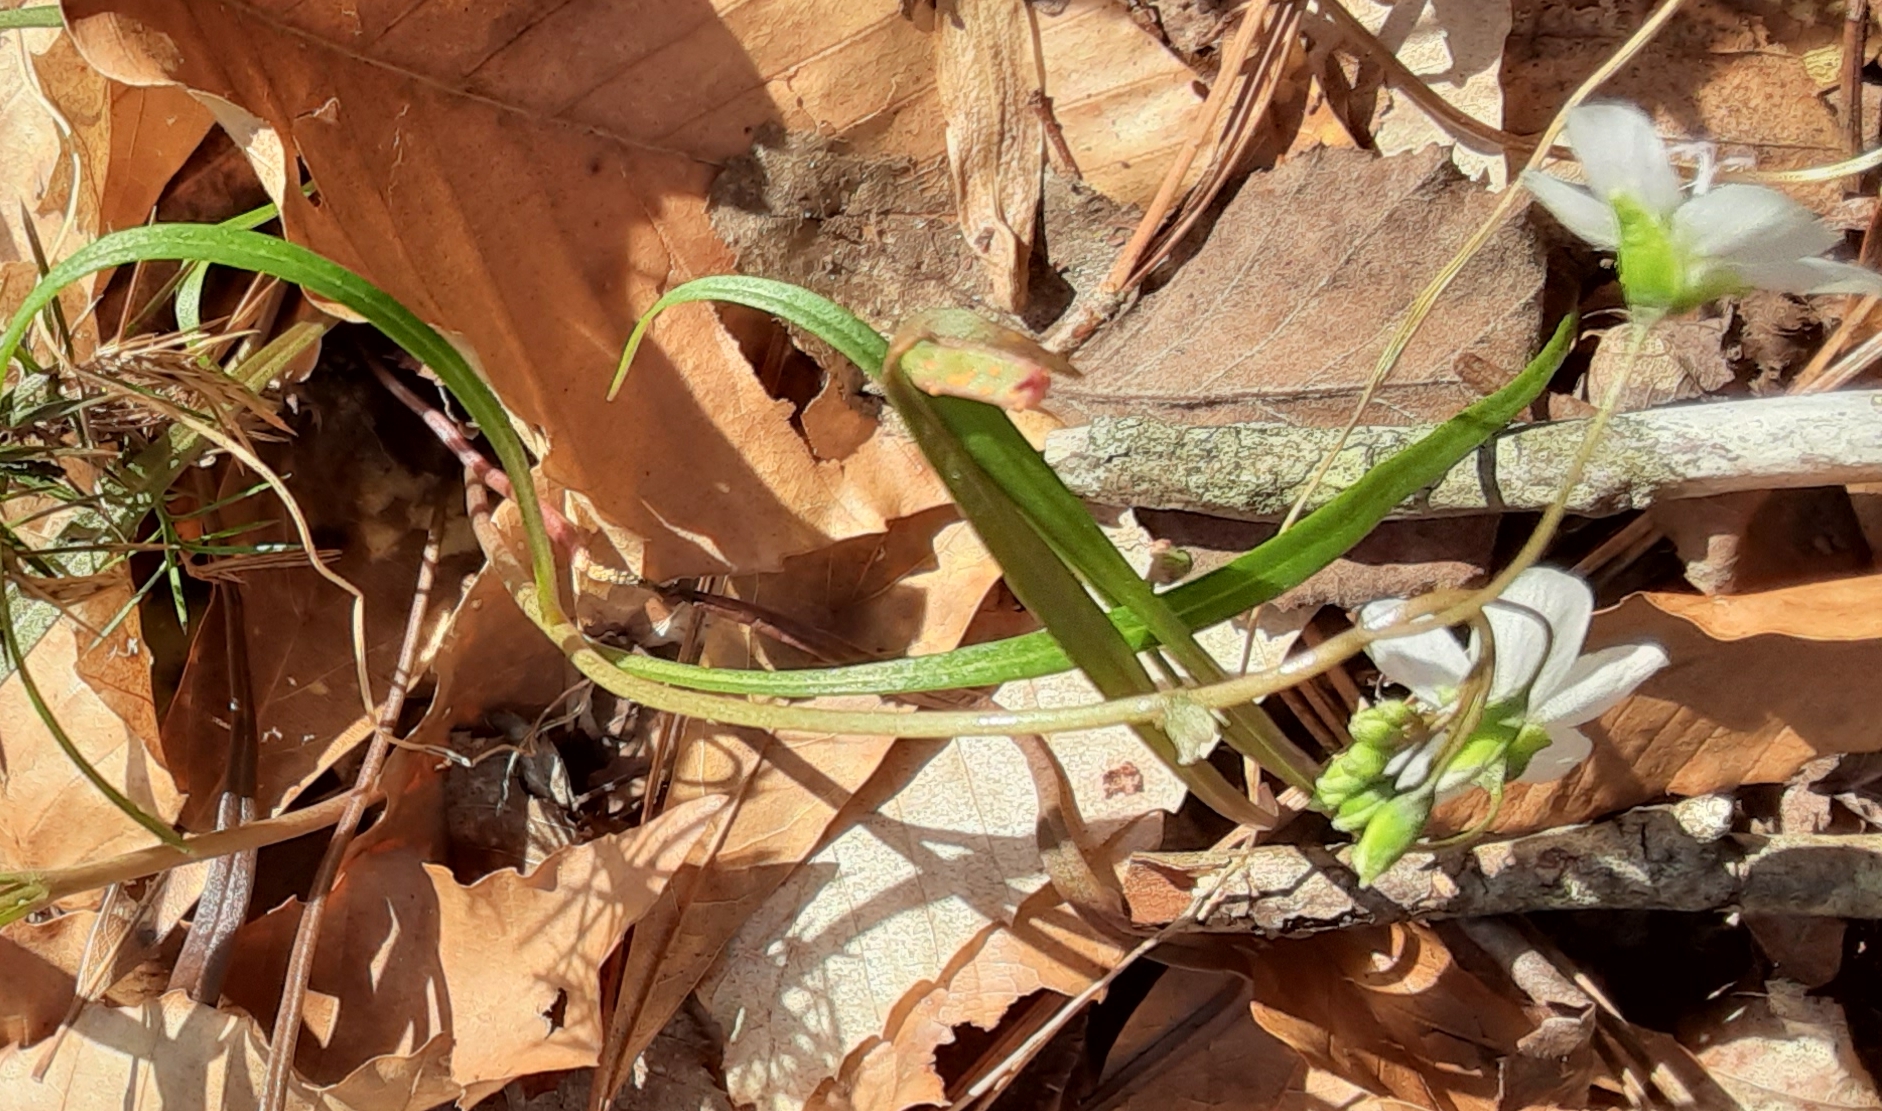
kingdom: Plantae
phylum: Tracheophyta
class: Magnoliopsida
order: Caryophyllales
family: Montiaceae
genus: Claytonia
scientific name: Claytonia virginica
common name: Virginia springbeauty
